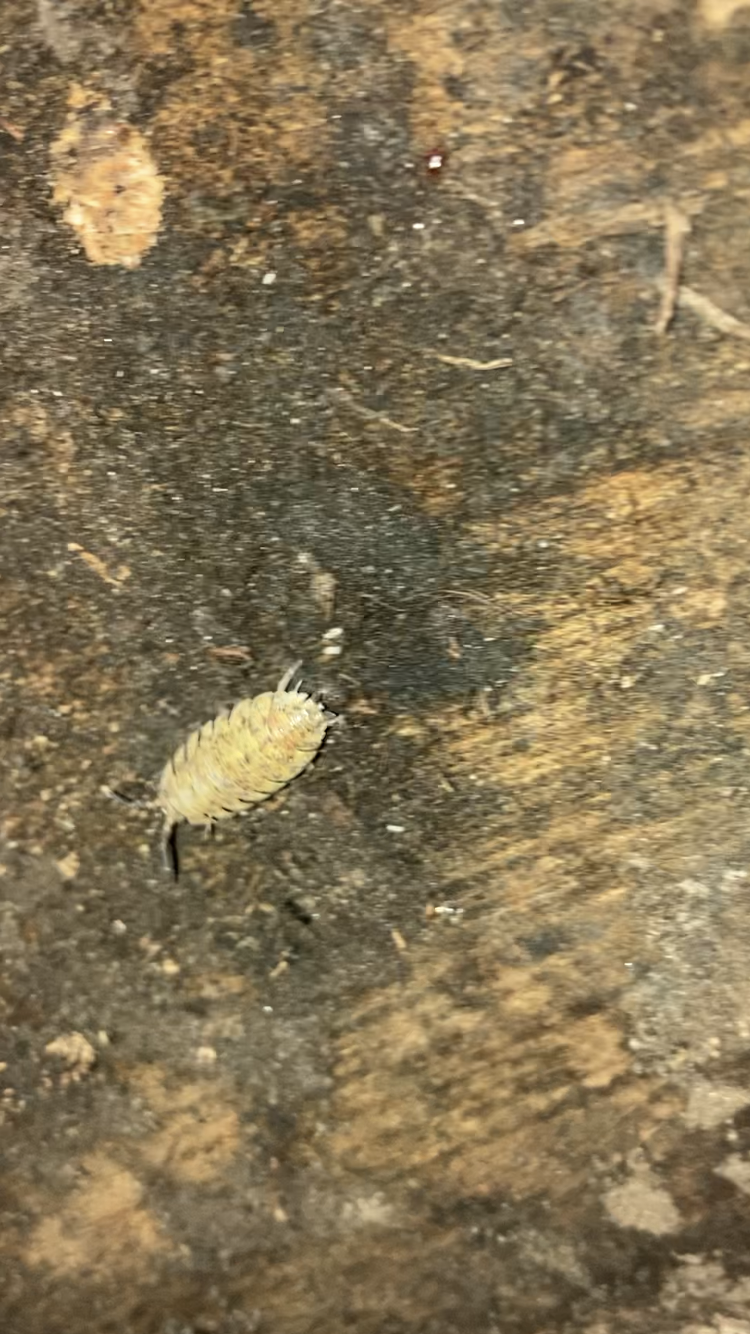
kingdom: Animalia
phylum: Arthropoda
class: Malacostraca
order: Isopoda
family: Porcellionidae
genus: Porcellio
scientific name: Porcellio scaber
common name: Common rough woodlouse
